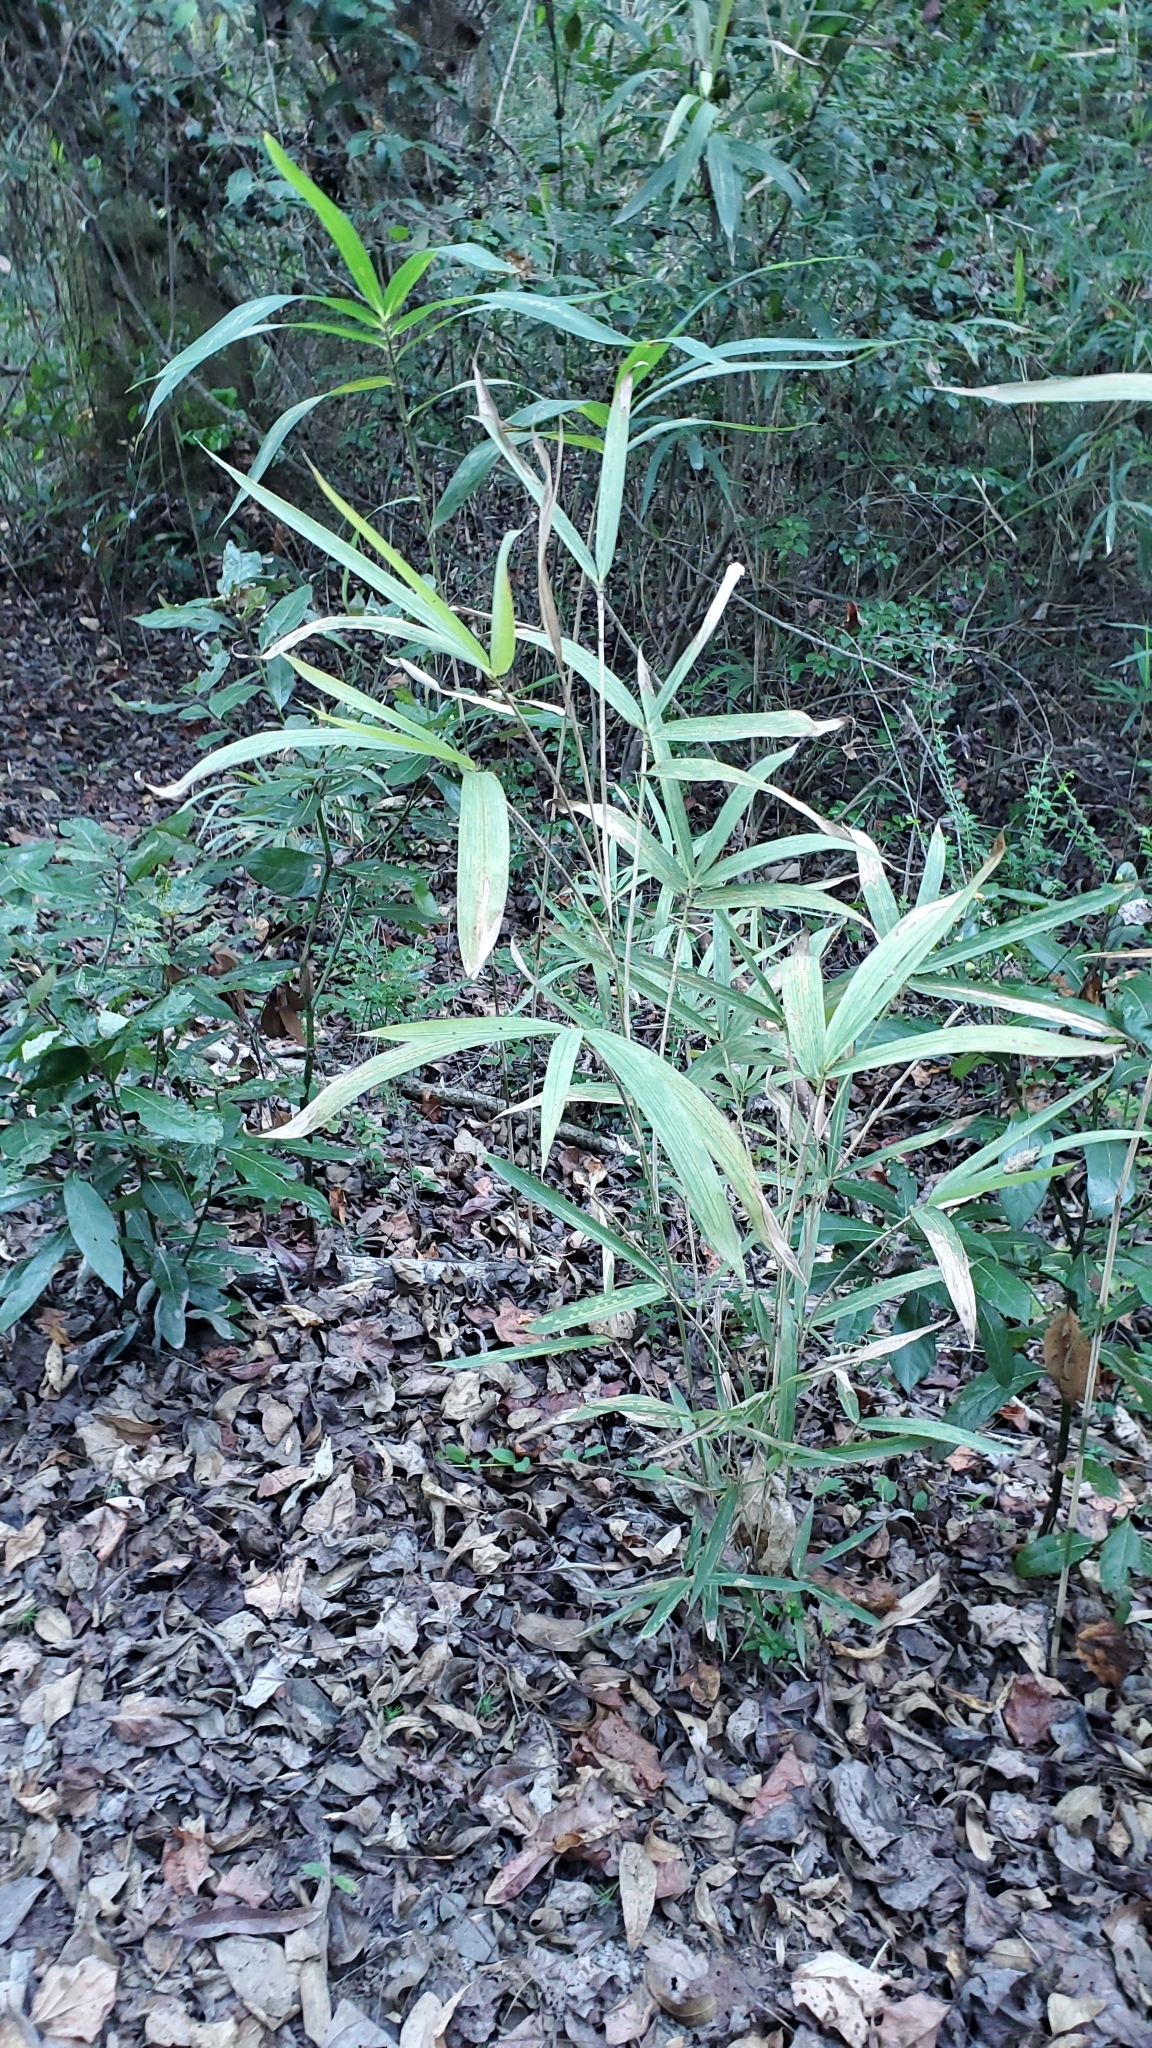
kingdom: Plantae
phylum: Tracheophyta
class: Liliopsida
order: Poales
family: Poaceae
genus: Arundinaria
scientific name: Arundinaria tecta
